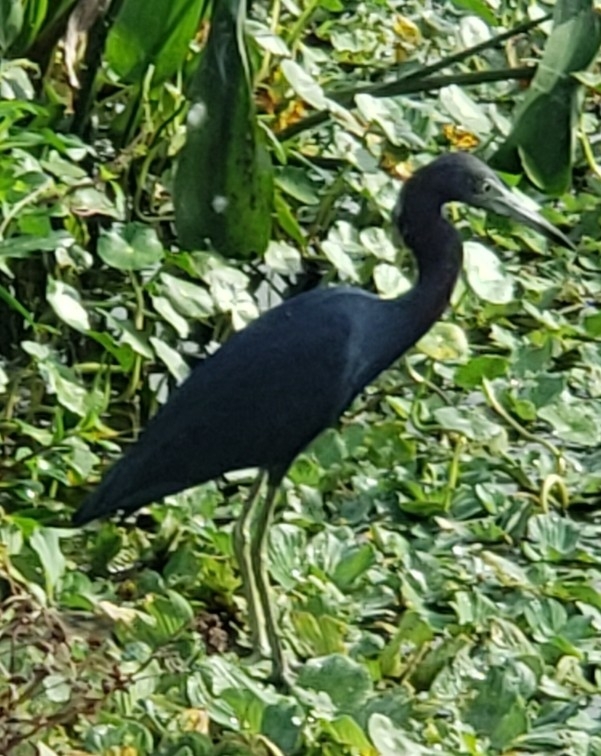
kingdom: Animalia
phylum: Chordata
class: Aves
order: Pelecaniformes
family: Ardeidae
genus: Egretta
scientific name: Egretta caerulea
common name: Little blue heron
